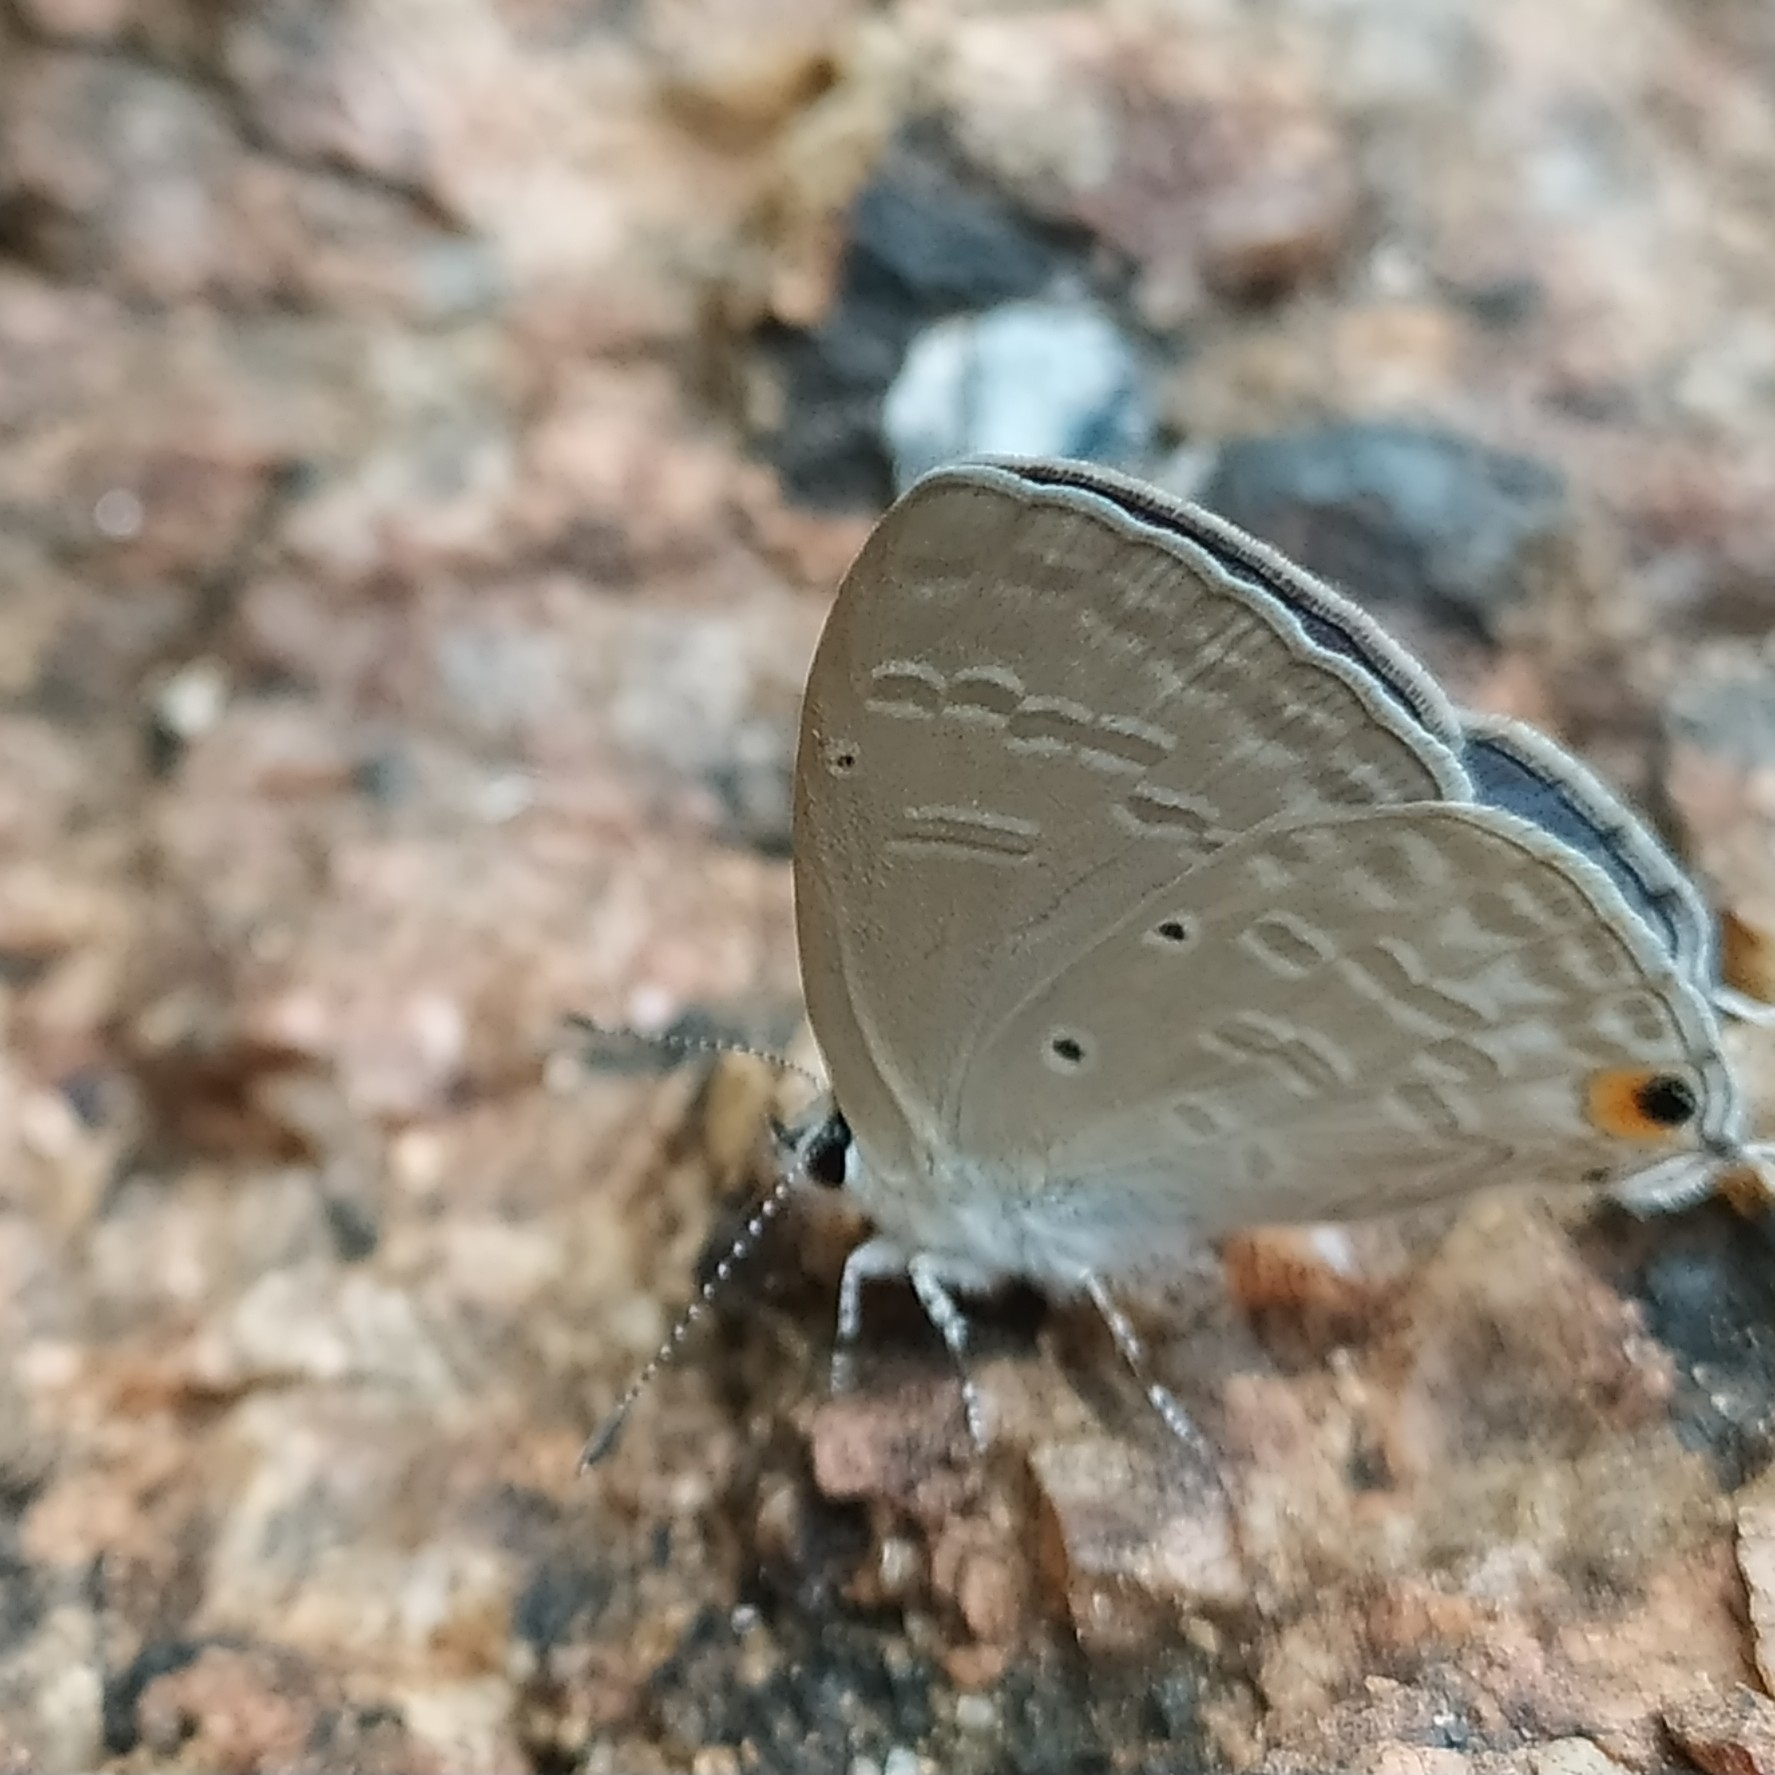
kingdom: Animalia
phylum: Arthropoda
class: Insecta
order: Lepidoptera
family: Lycaenidae
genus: Catochrysops
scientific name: Catochrysops strabo
